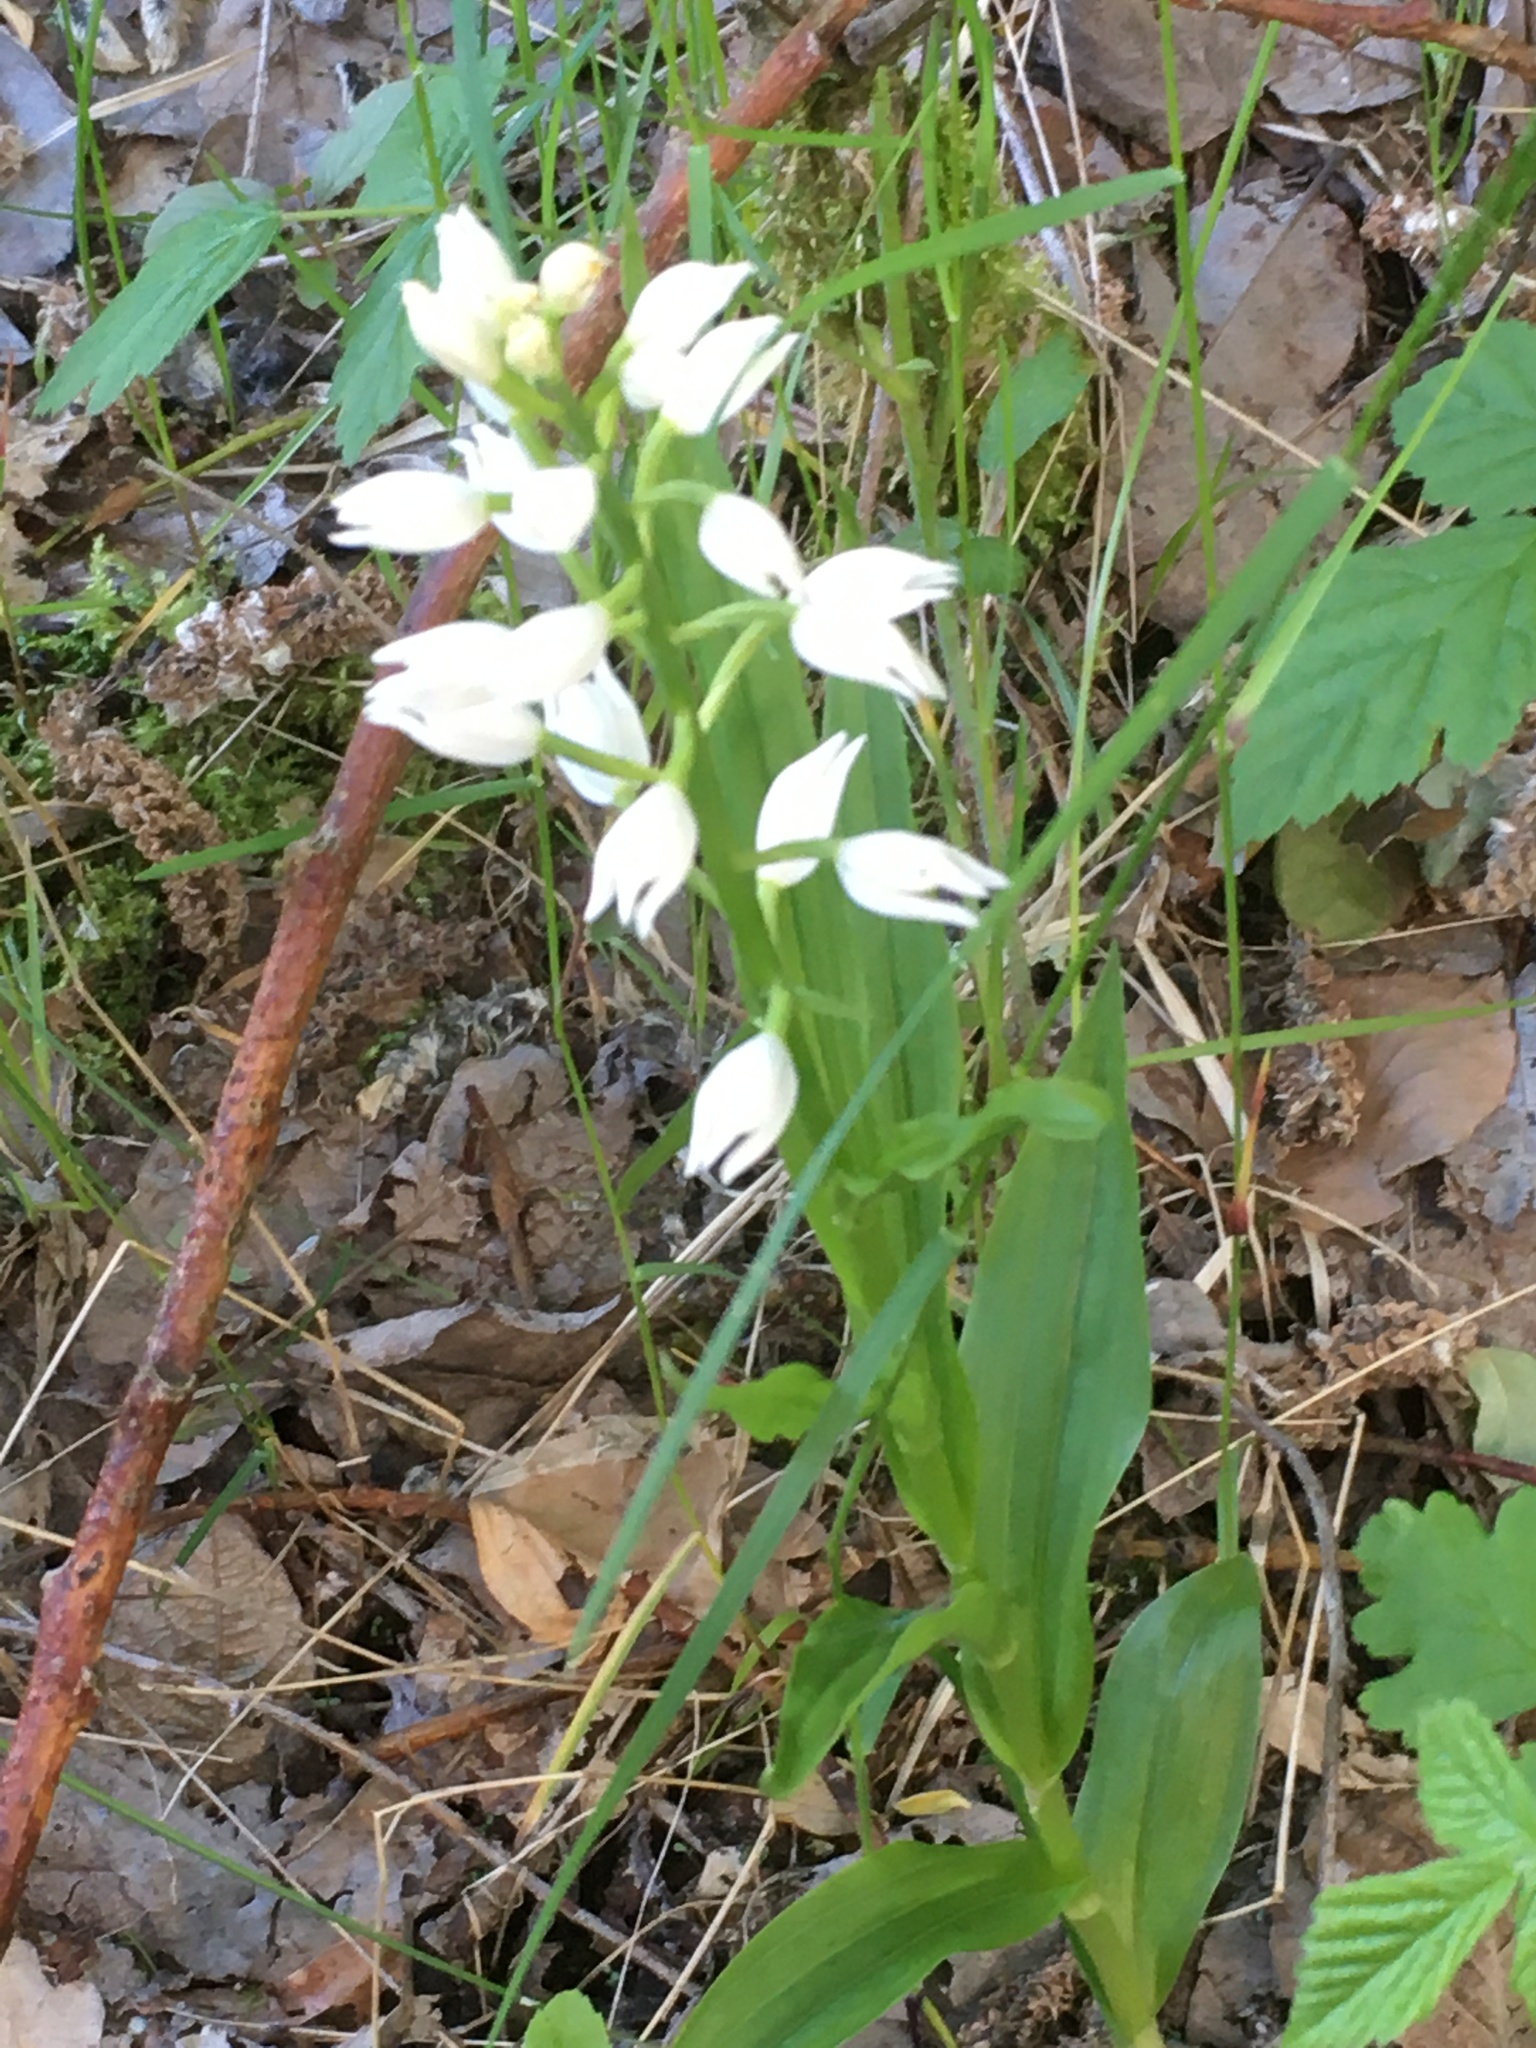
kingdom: Plantae
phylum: Tracheophyta
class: Liliopsida
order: Asparagales
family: Orchidaceae
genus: Cephalanthera
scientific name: Cephalanthera longifolia
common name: Narrow-leaved helleborine
